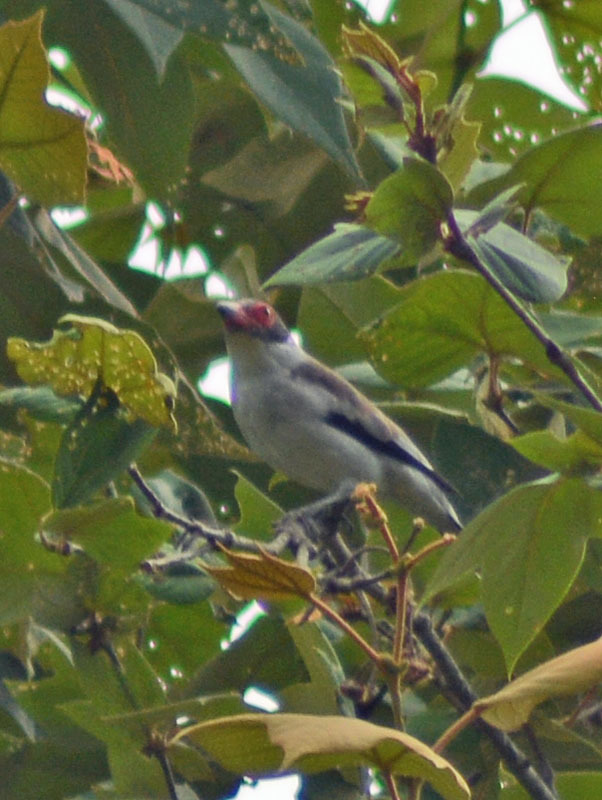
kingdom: Animalia
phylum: Chordata
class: Aves
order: Passeriformes
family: Cotingidae
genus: Tityra
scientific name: Tityra semifasciata
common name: Masked tityra
